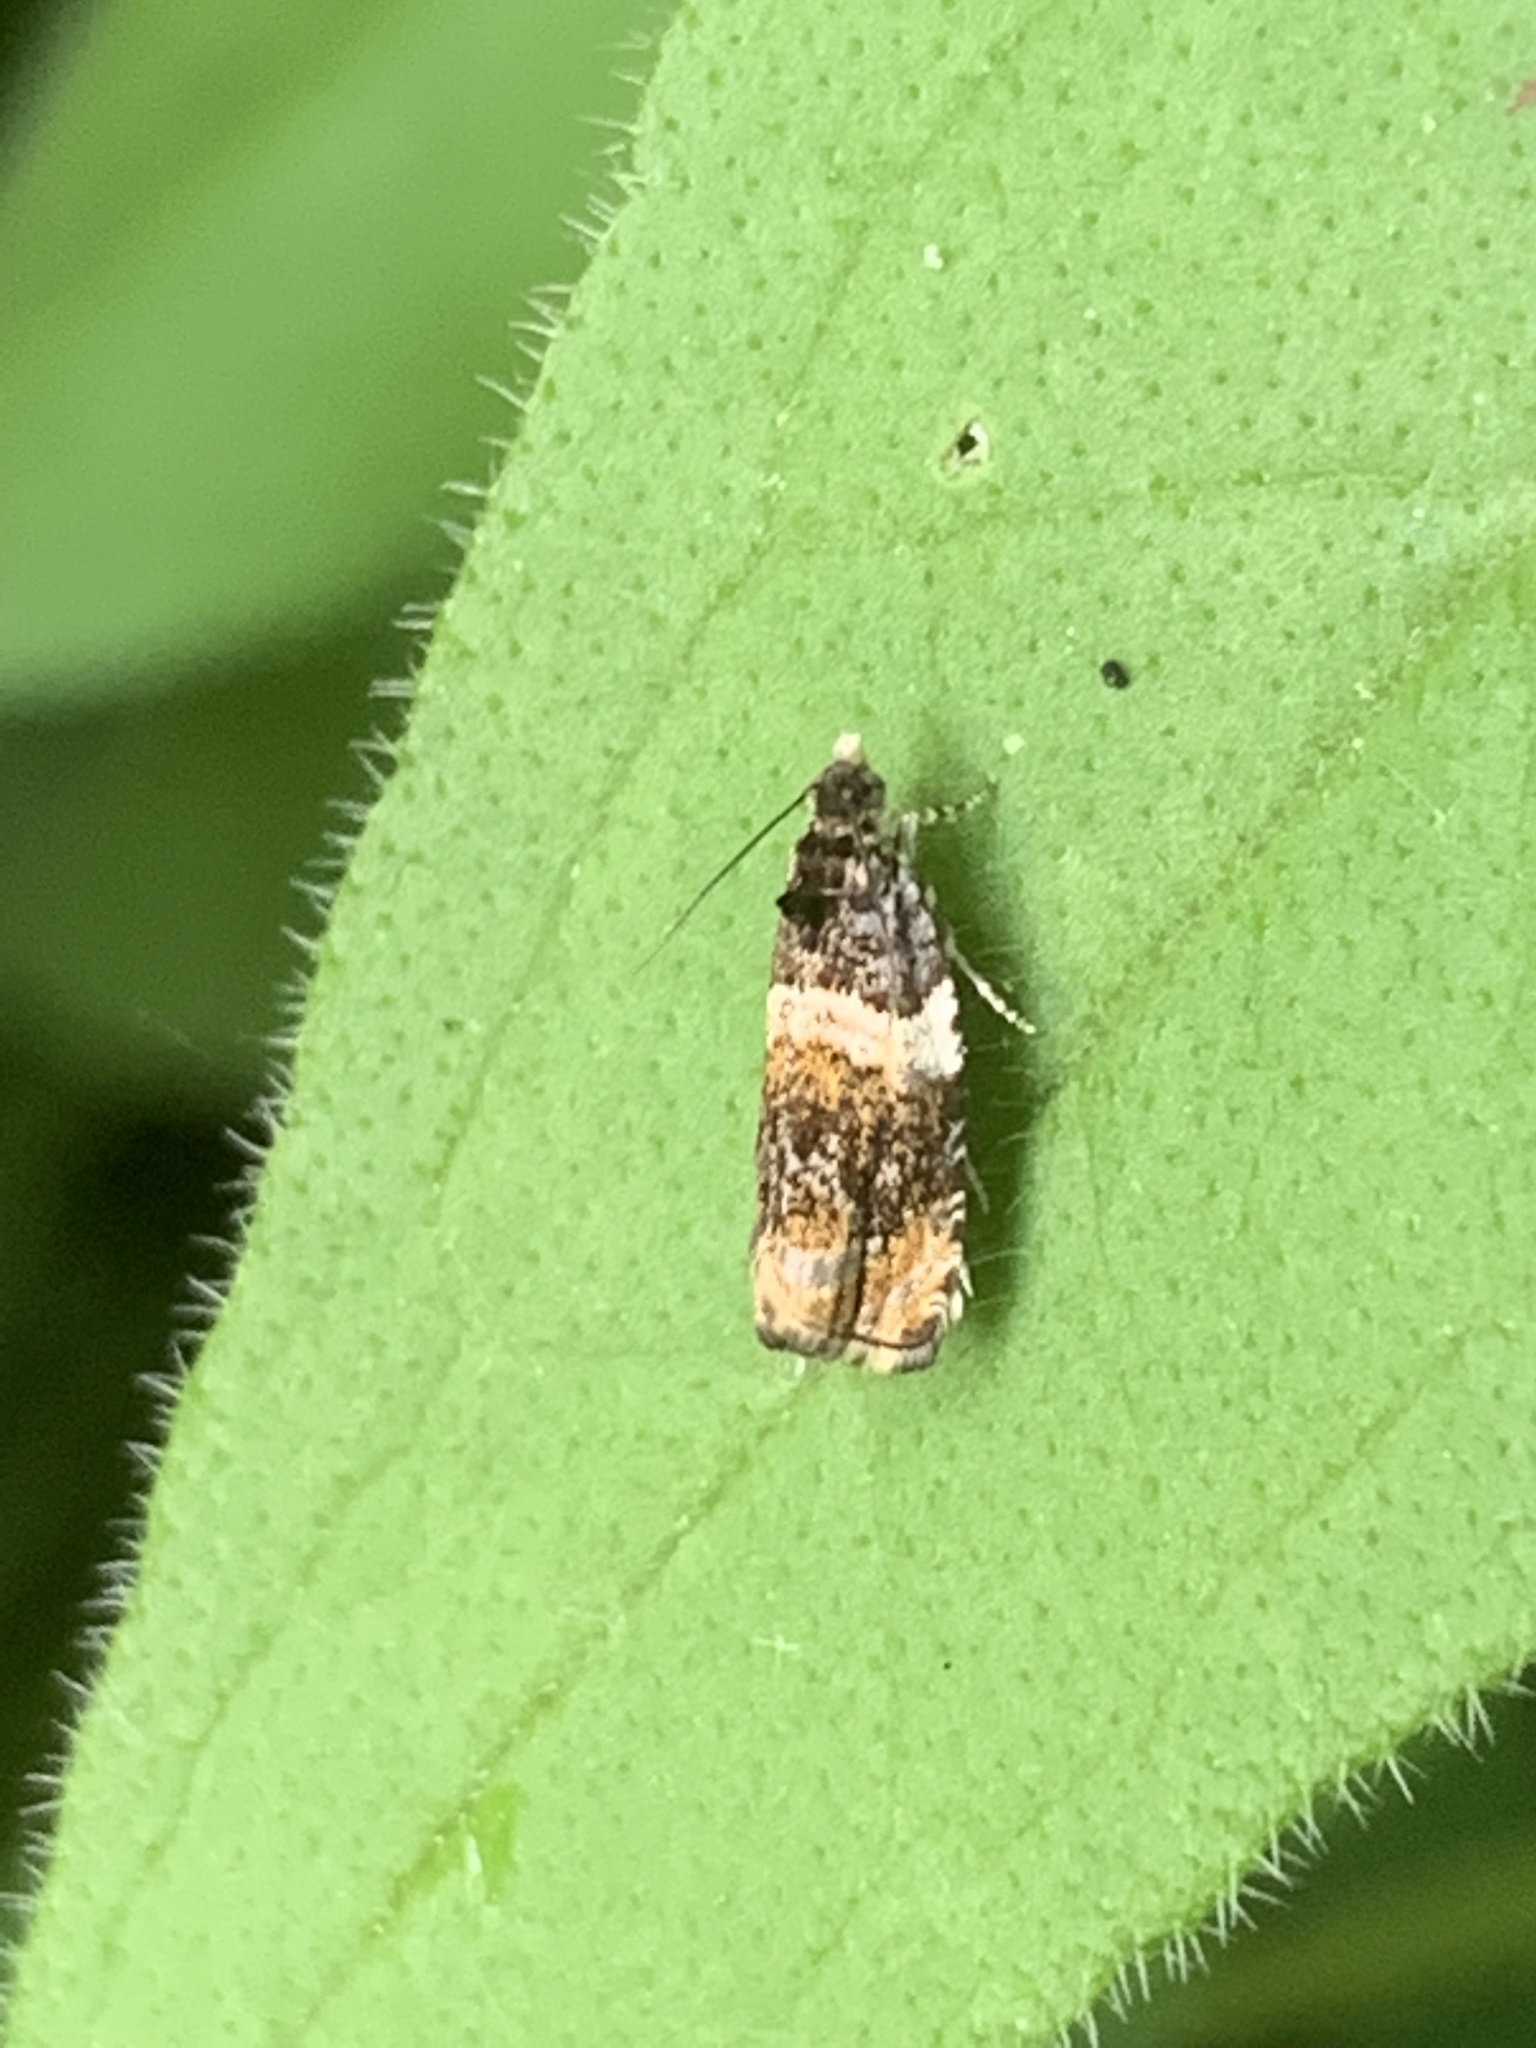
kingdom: Animalia
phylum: Arthropoda
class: Insecta
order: Lepidoptera
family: Tortricidae
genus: Olethreutes
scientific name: Olethreutes fasciatana
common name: Banded olethreutes moth
